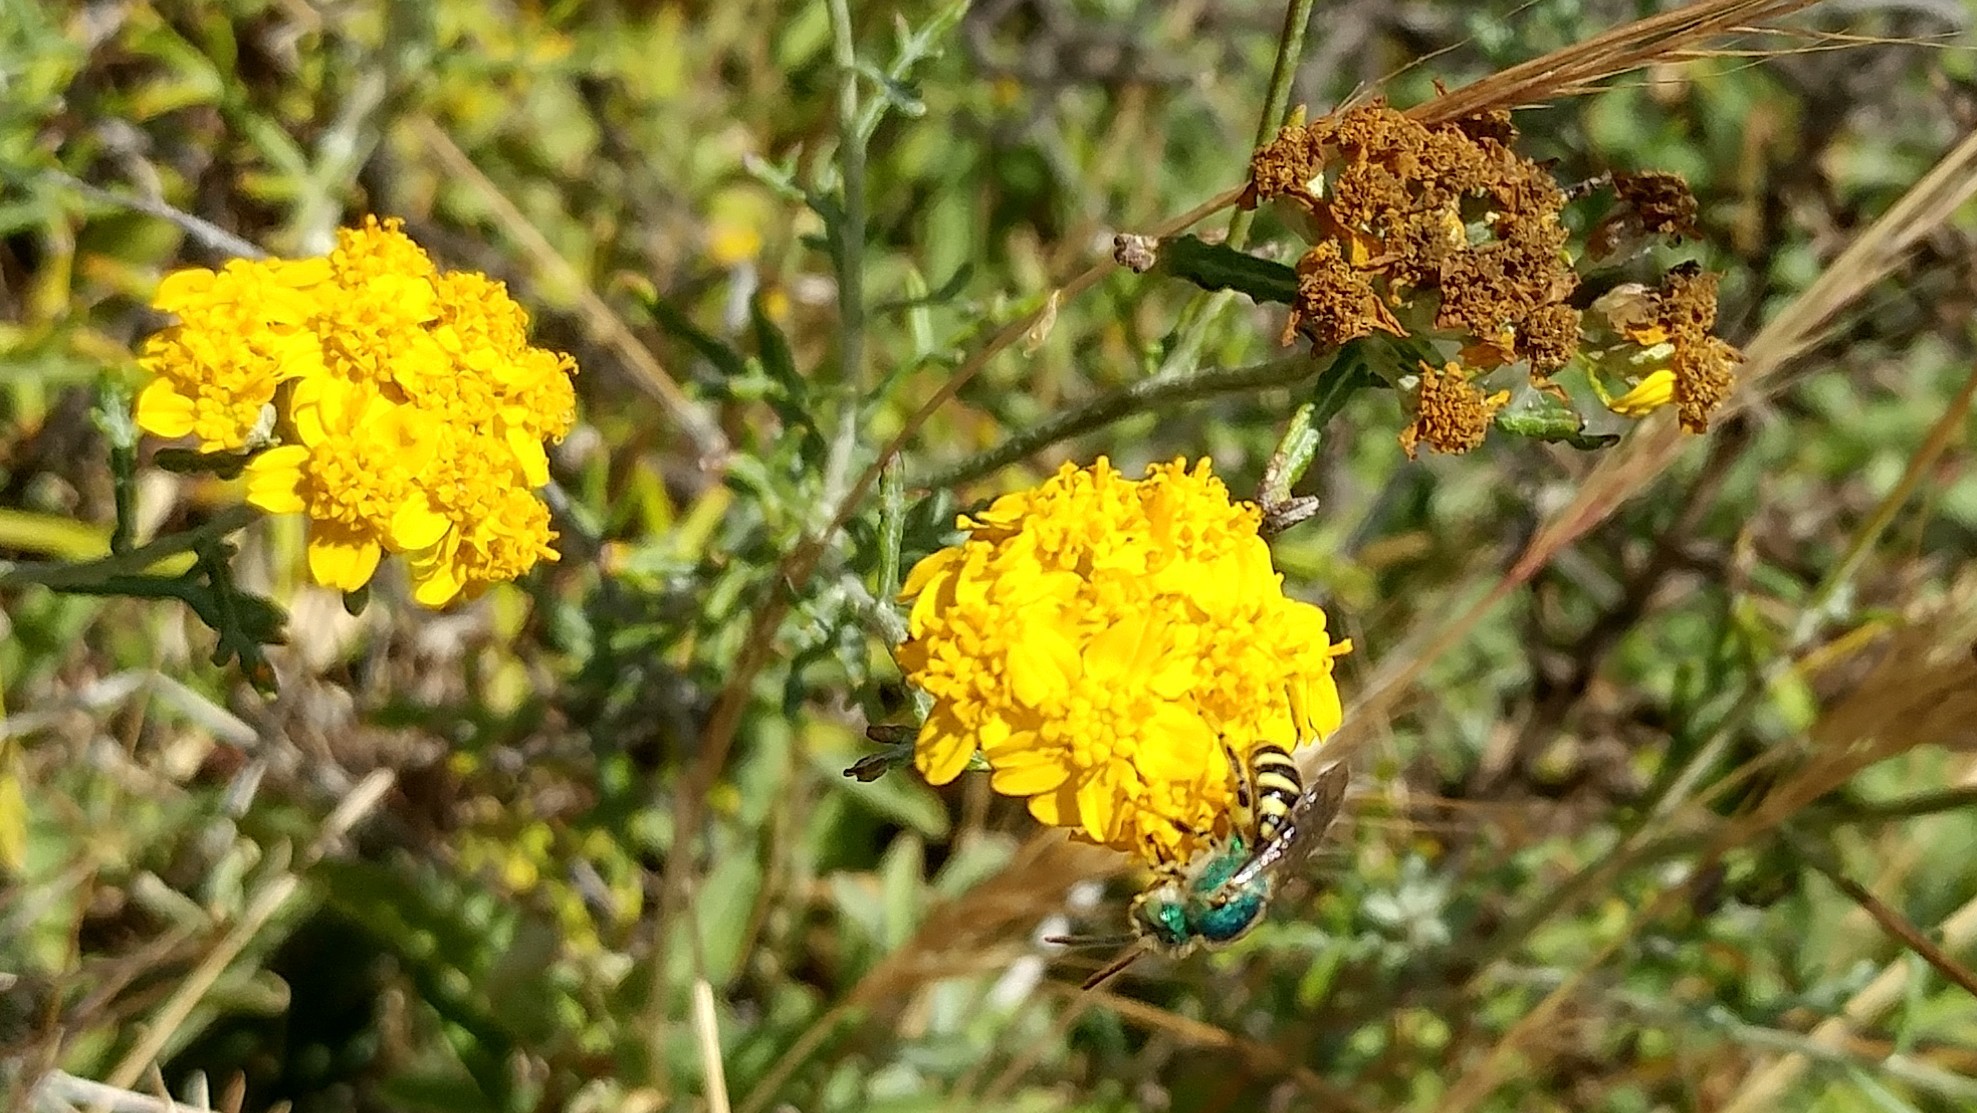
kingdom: Animalia
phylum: Arthropoda
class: Insecta
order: Hymenoptera
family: Halictidae
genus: Agapostemon
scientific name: Agapostemon texanus
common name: Texas striped sweat bee
